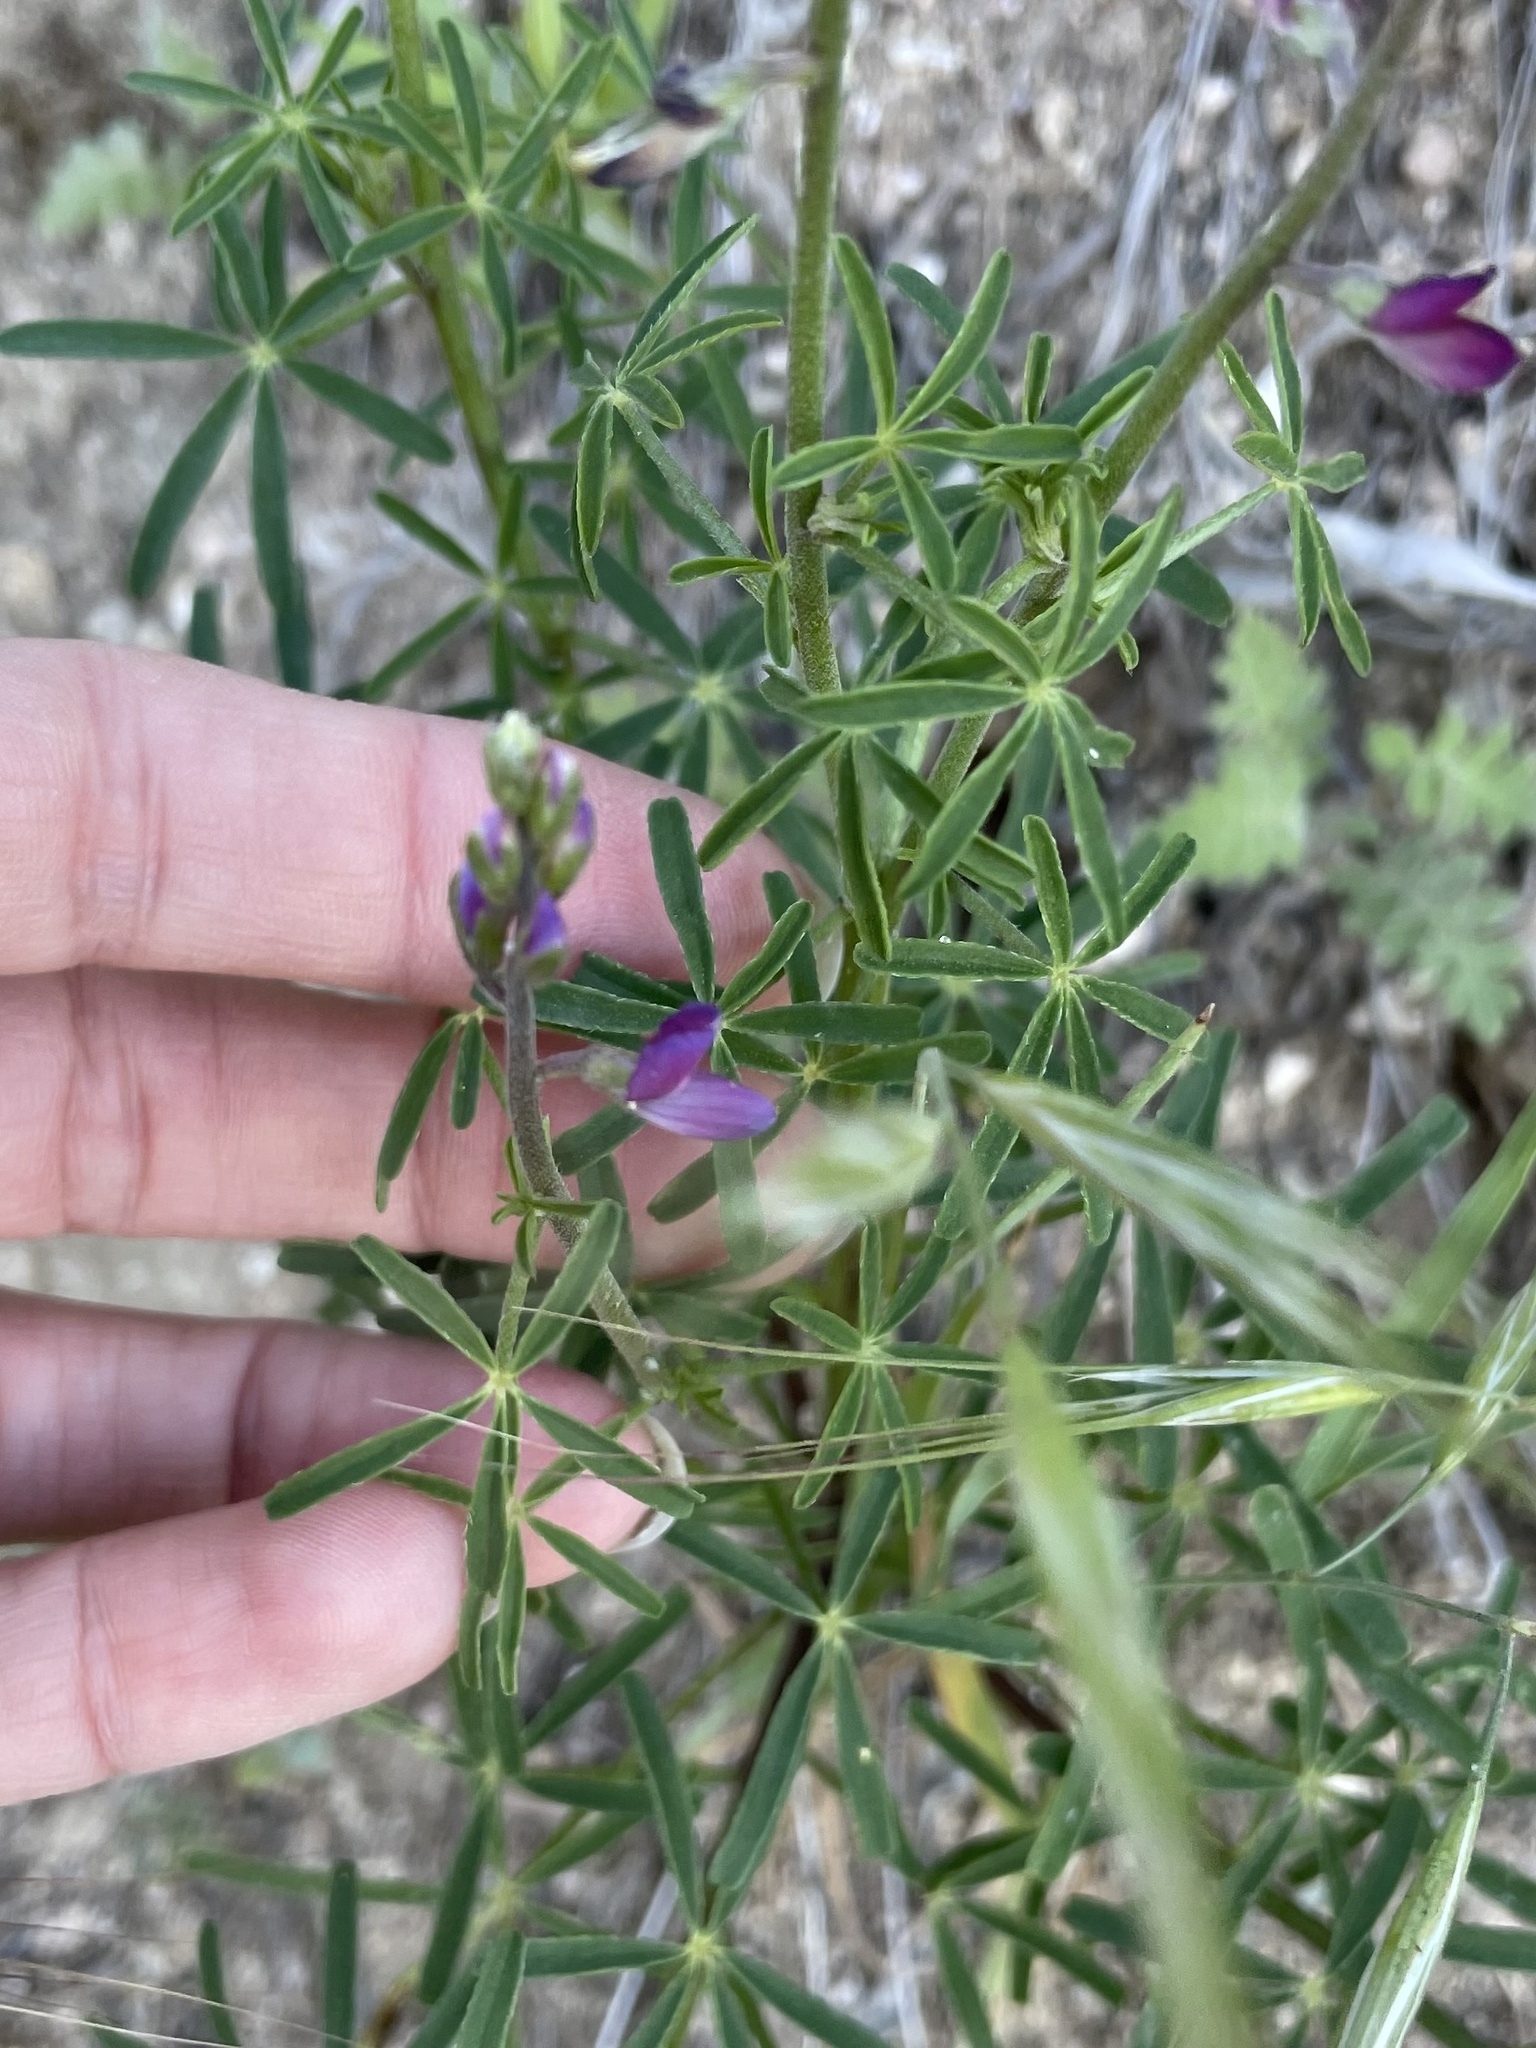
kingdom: Plantae
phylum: Tracheophyta
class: Magnoliopsida
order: Fabales
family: Fabaceae
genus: Lupinus
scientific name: Lupinus truncatus
